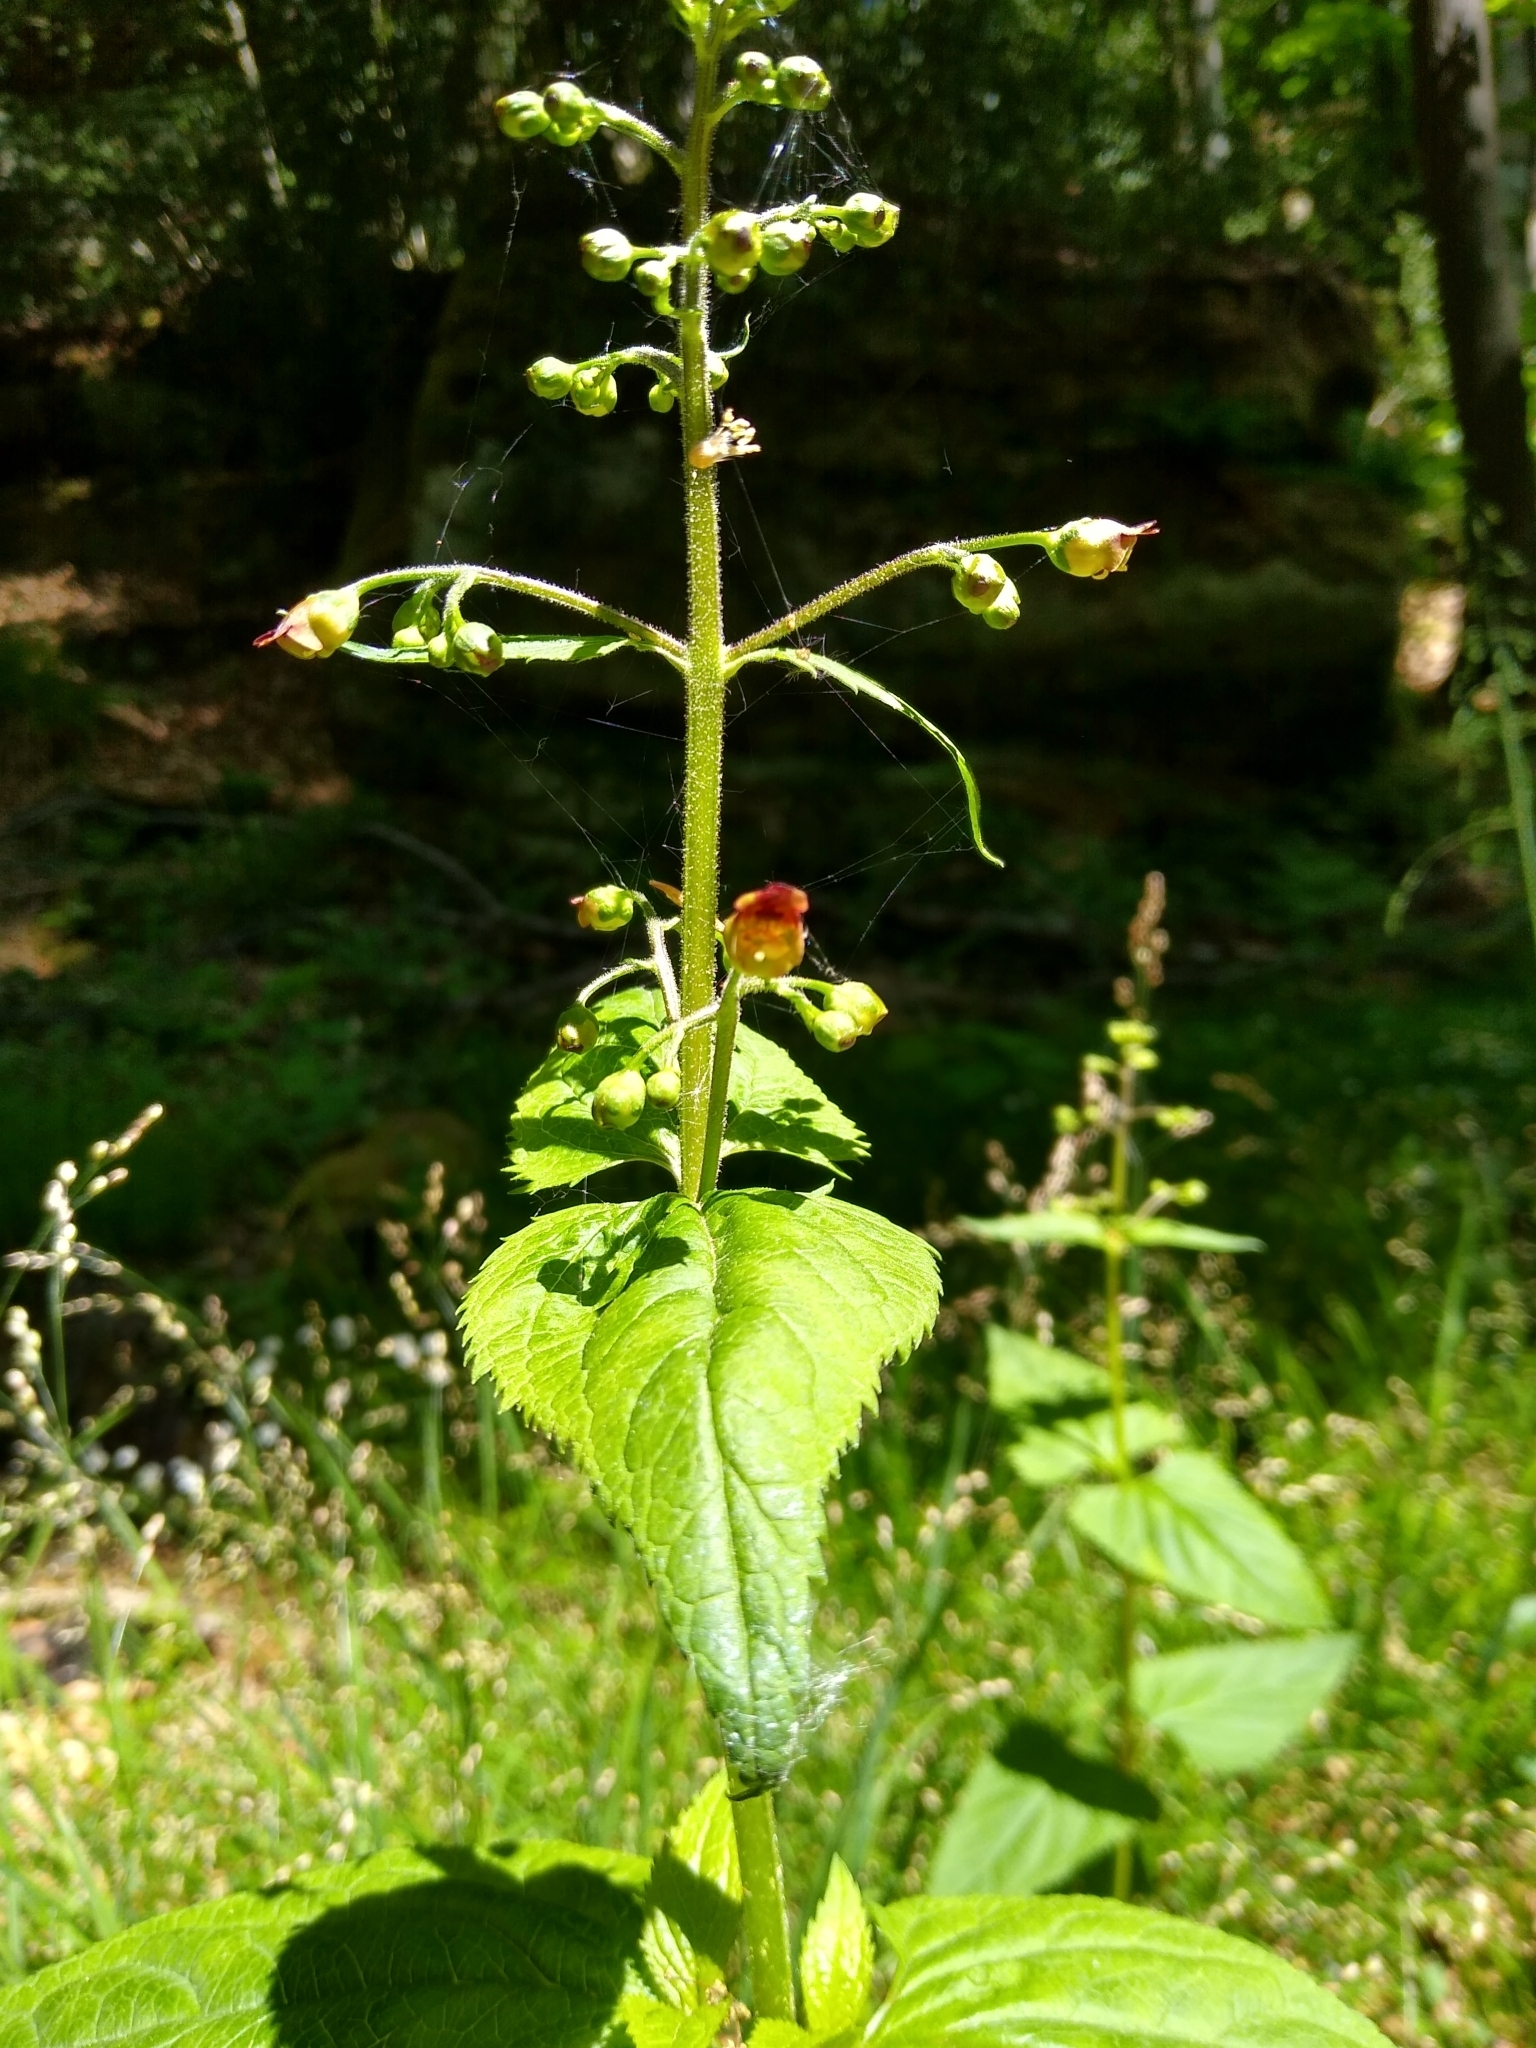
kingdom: Plantae
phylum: Tracheophyta
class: Magnoliopsida
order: Lamiales
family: Scrophulariaceae
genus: Scrophularia
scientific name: Scrophularia nodosa
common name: Common figwort
